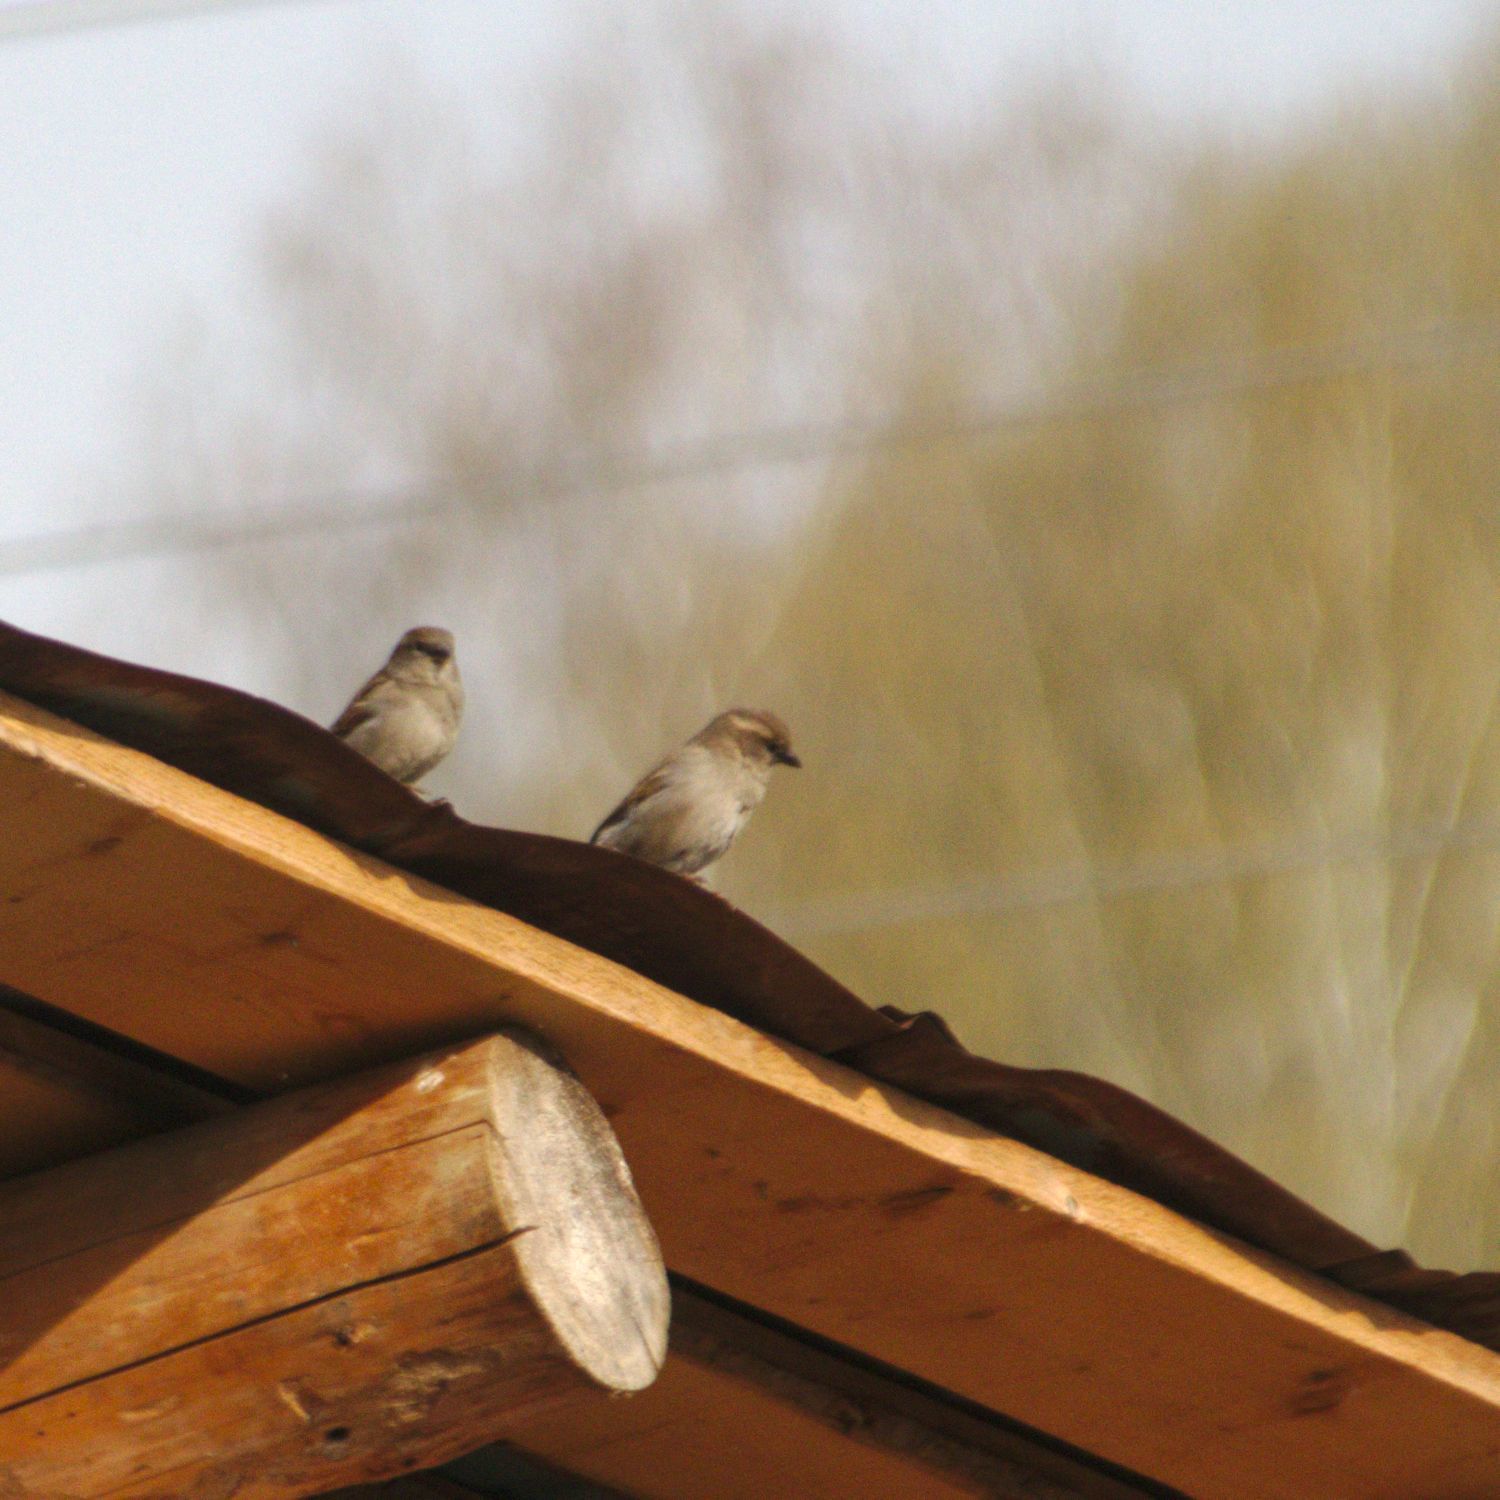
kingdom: Animalia
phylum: Chordata
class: Aves
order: Passeriformes
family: Passeridae
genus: Passer
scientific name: Passer domesticus
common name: House sparrow
